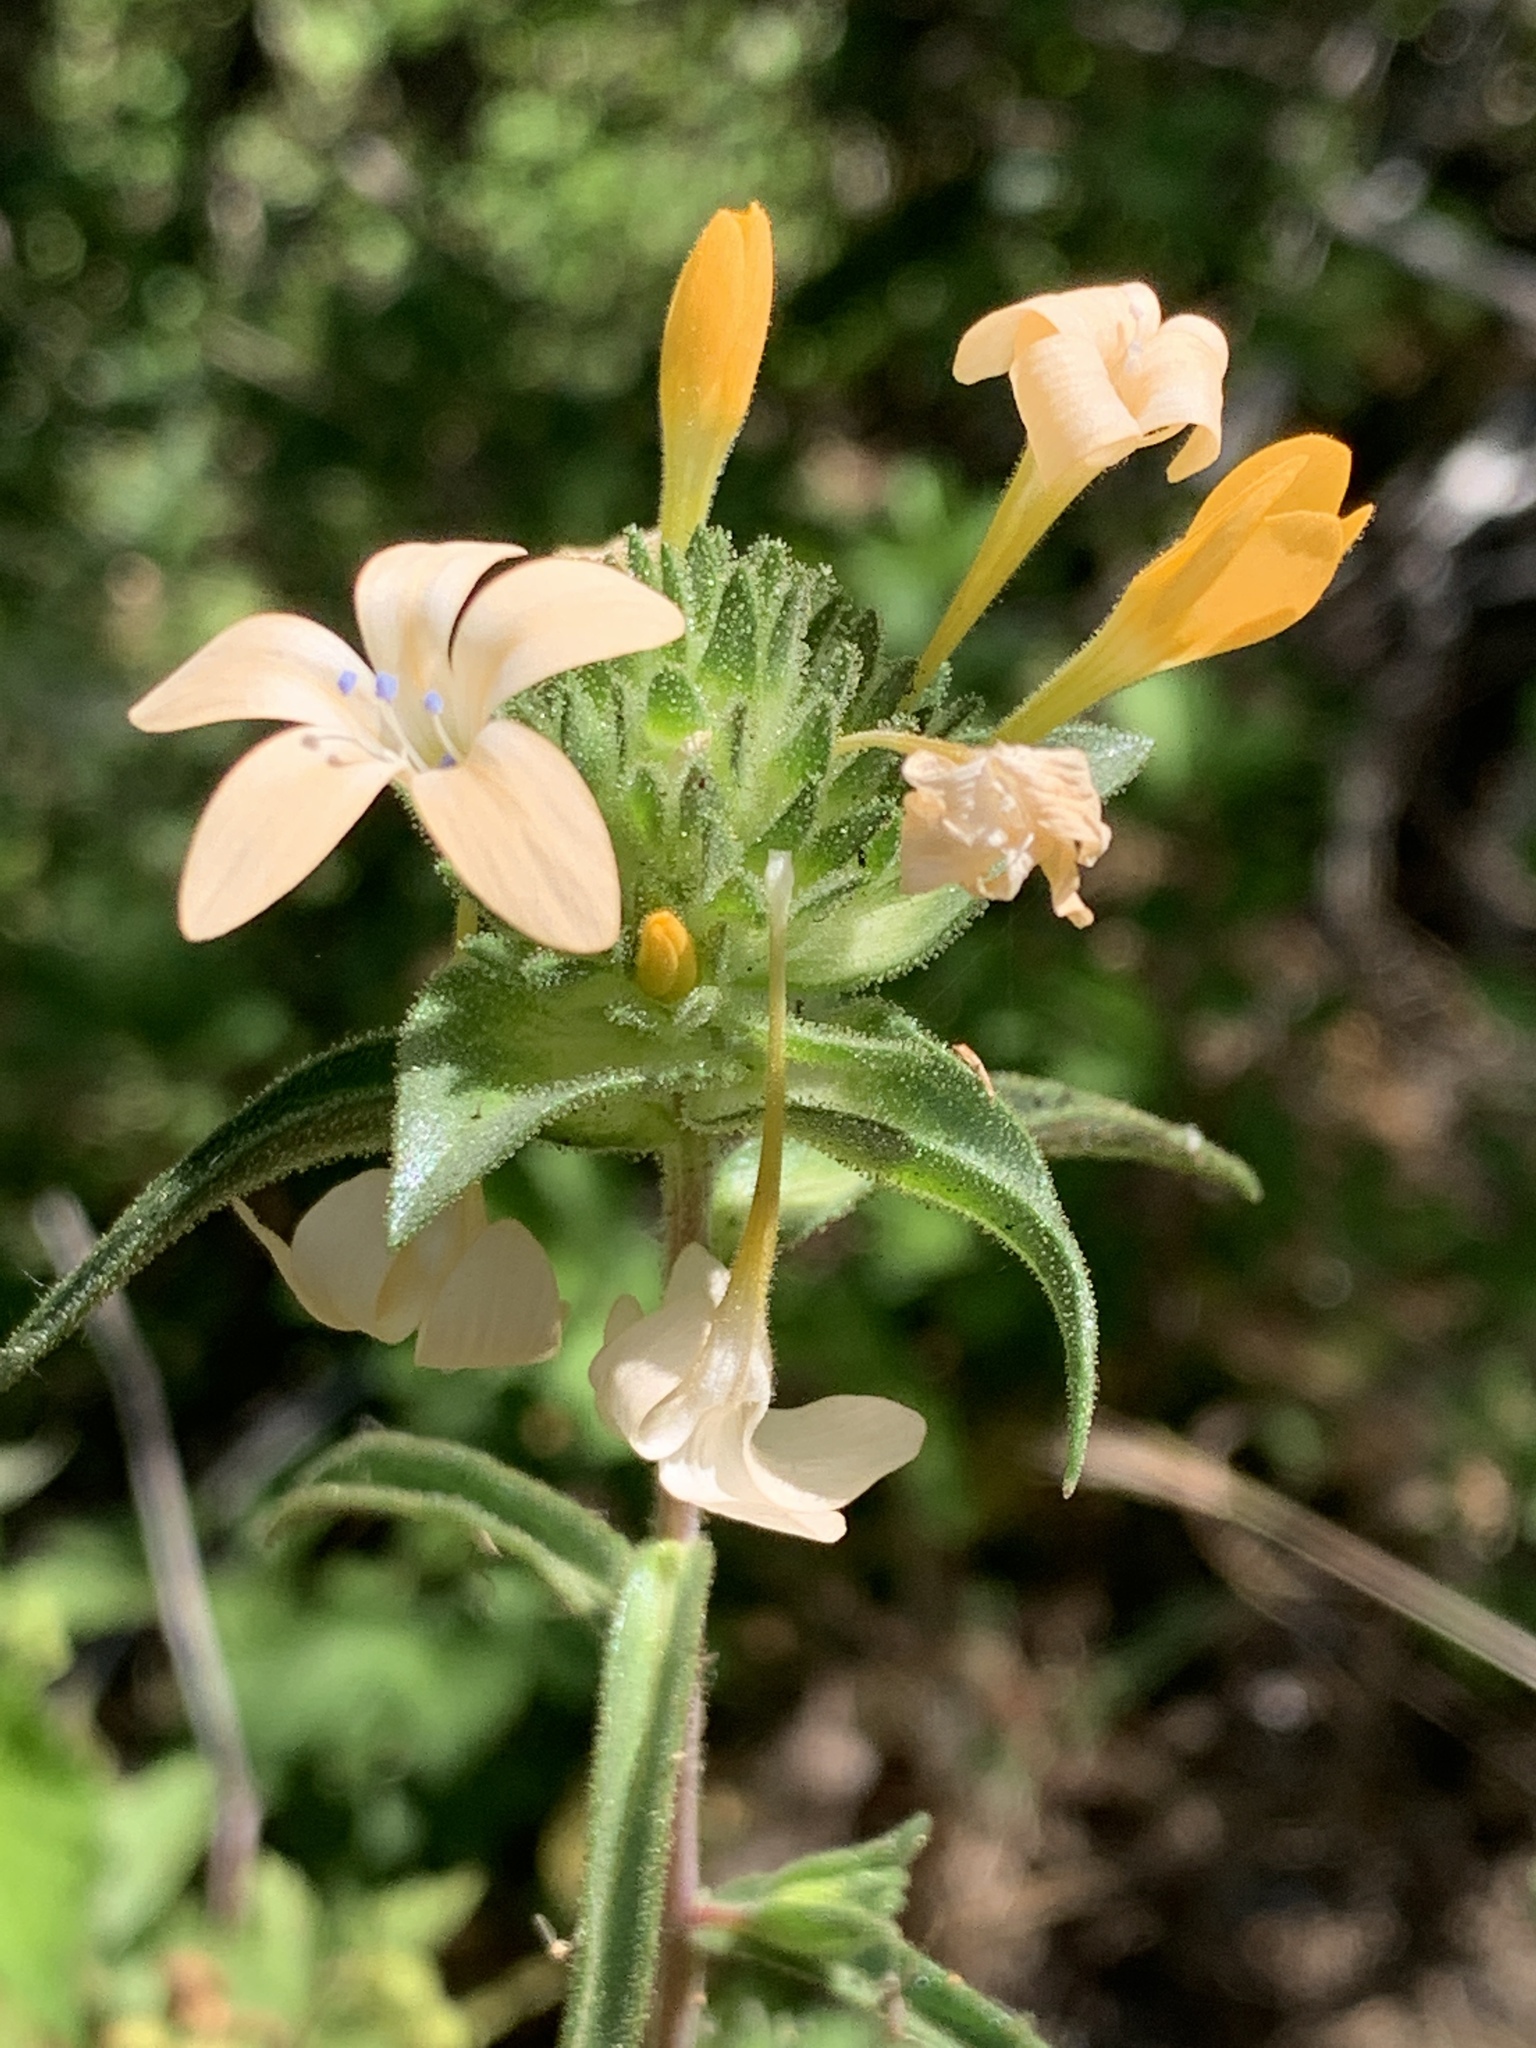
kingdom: Plantae
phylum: Tracheophyta
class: Magnoliopsida
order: Ericales
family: Polemoniaceae
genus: Collomia
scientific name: Collomia grandiflora
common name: California strawflower
